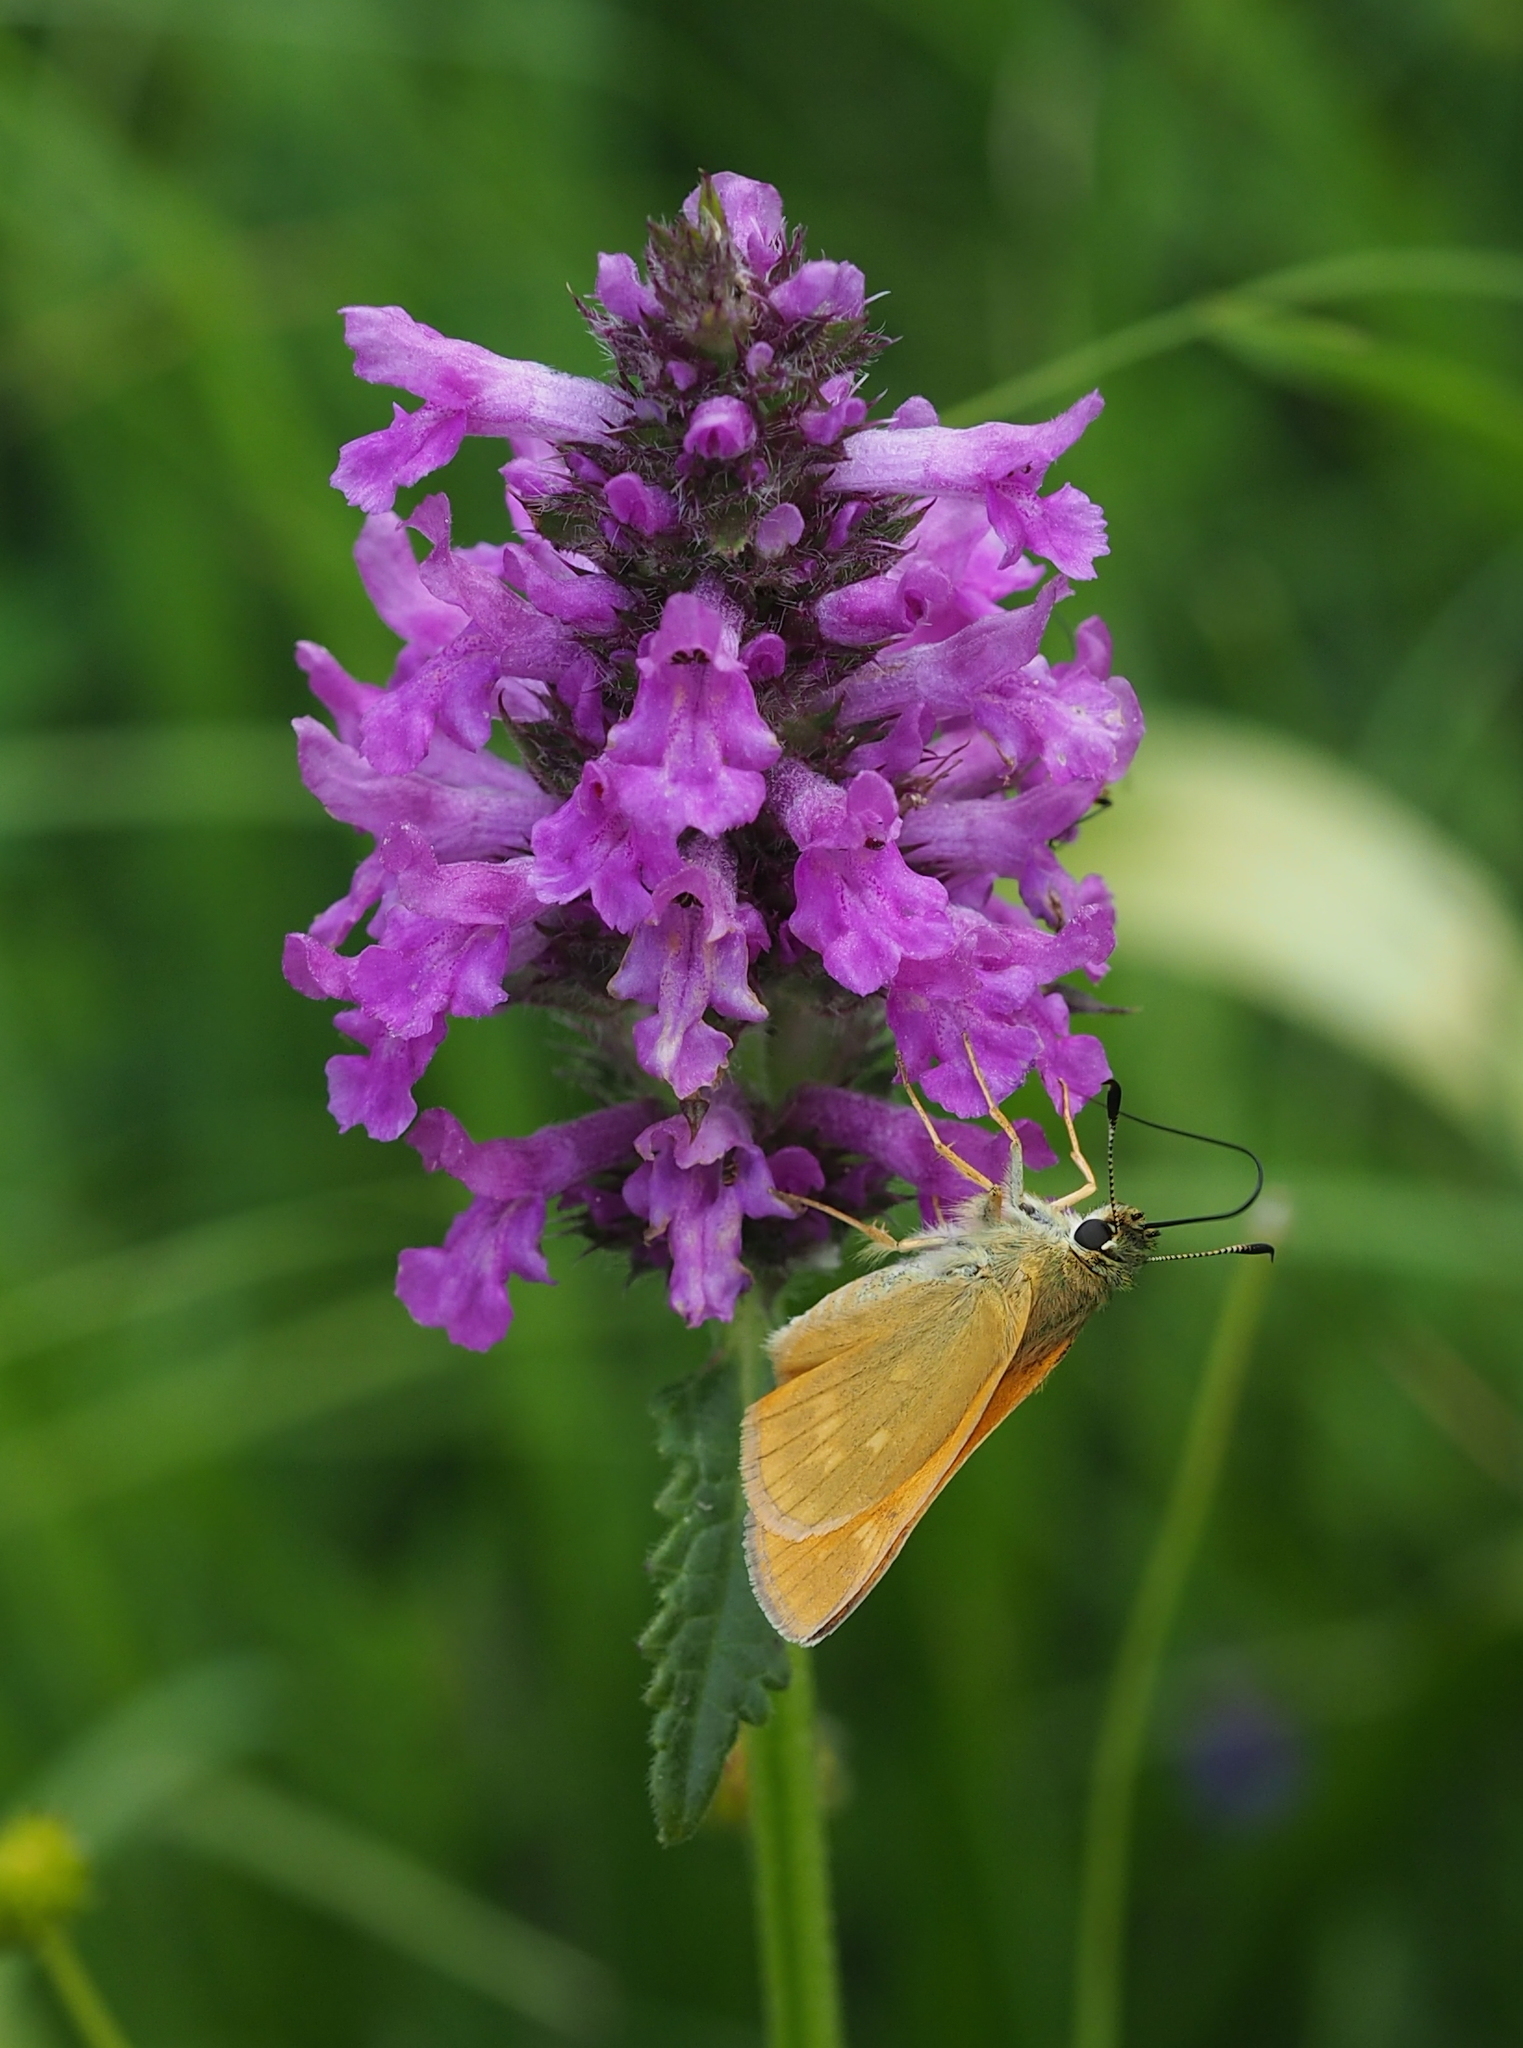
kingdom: Animalia
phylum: Arthropoda
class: Insecta
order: Lepidoptera
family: Hesperiidae
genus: Ochlodes
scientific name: Ochlodes venata
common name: Large skipper
